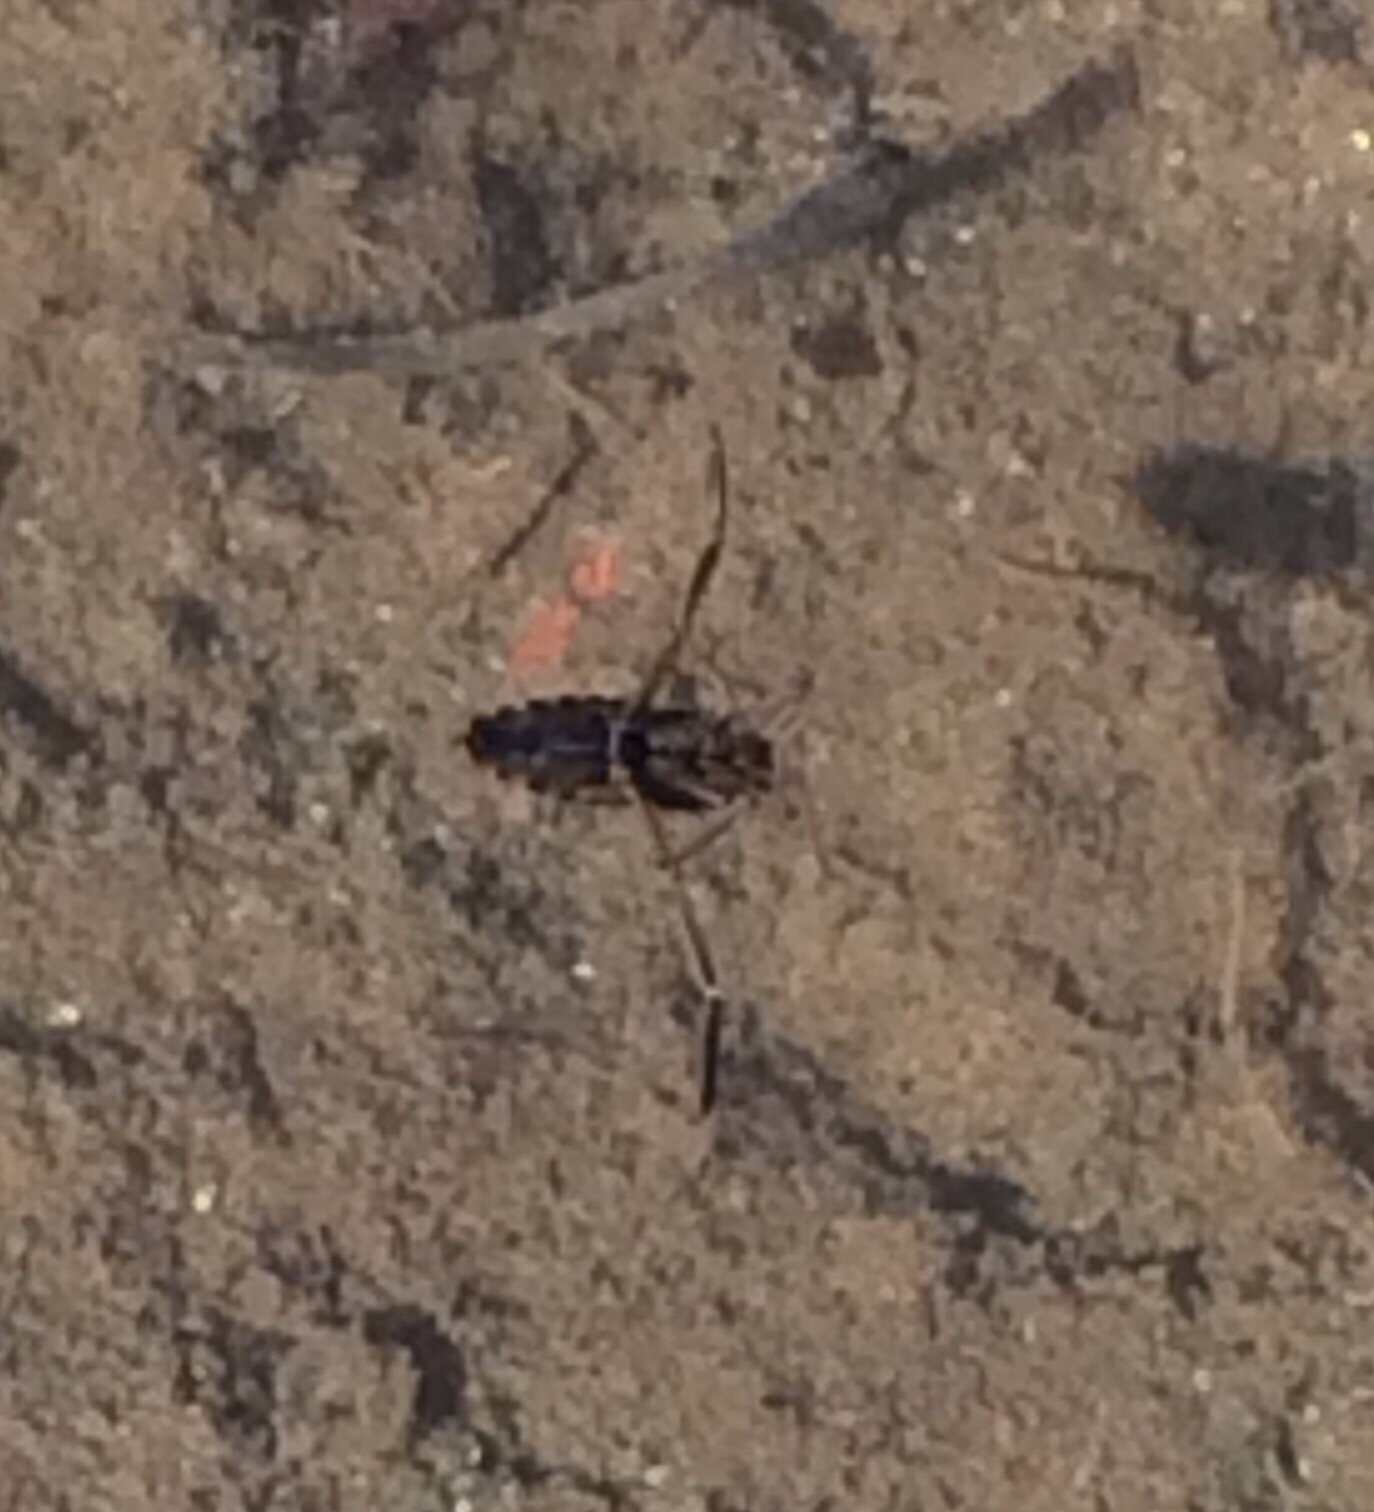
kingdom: Animalia
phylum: Arthropoda
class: Insecta
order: Hemiptera
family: Notonectidae
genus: Notonecta
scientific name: Notonecta
